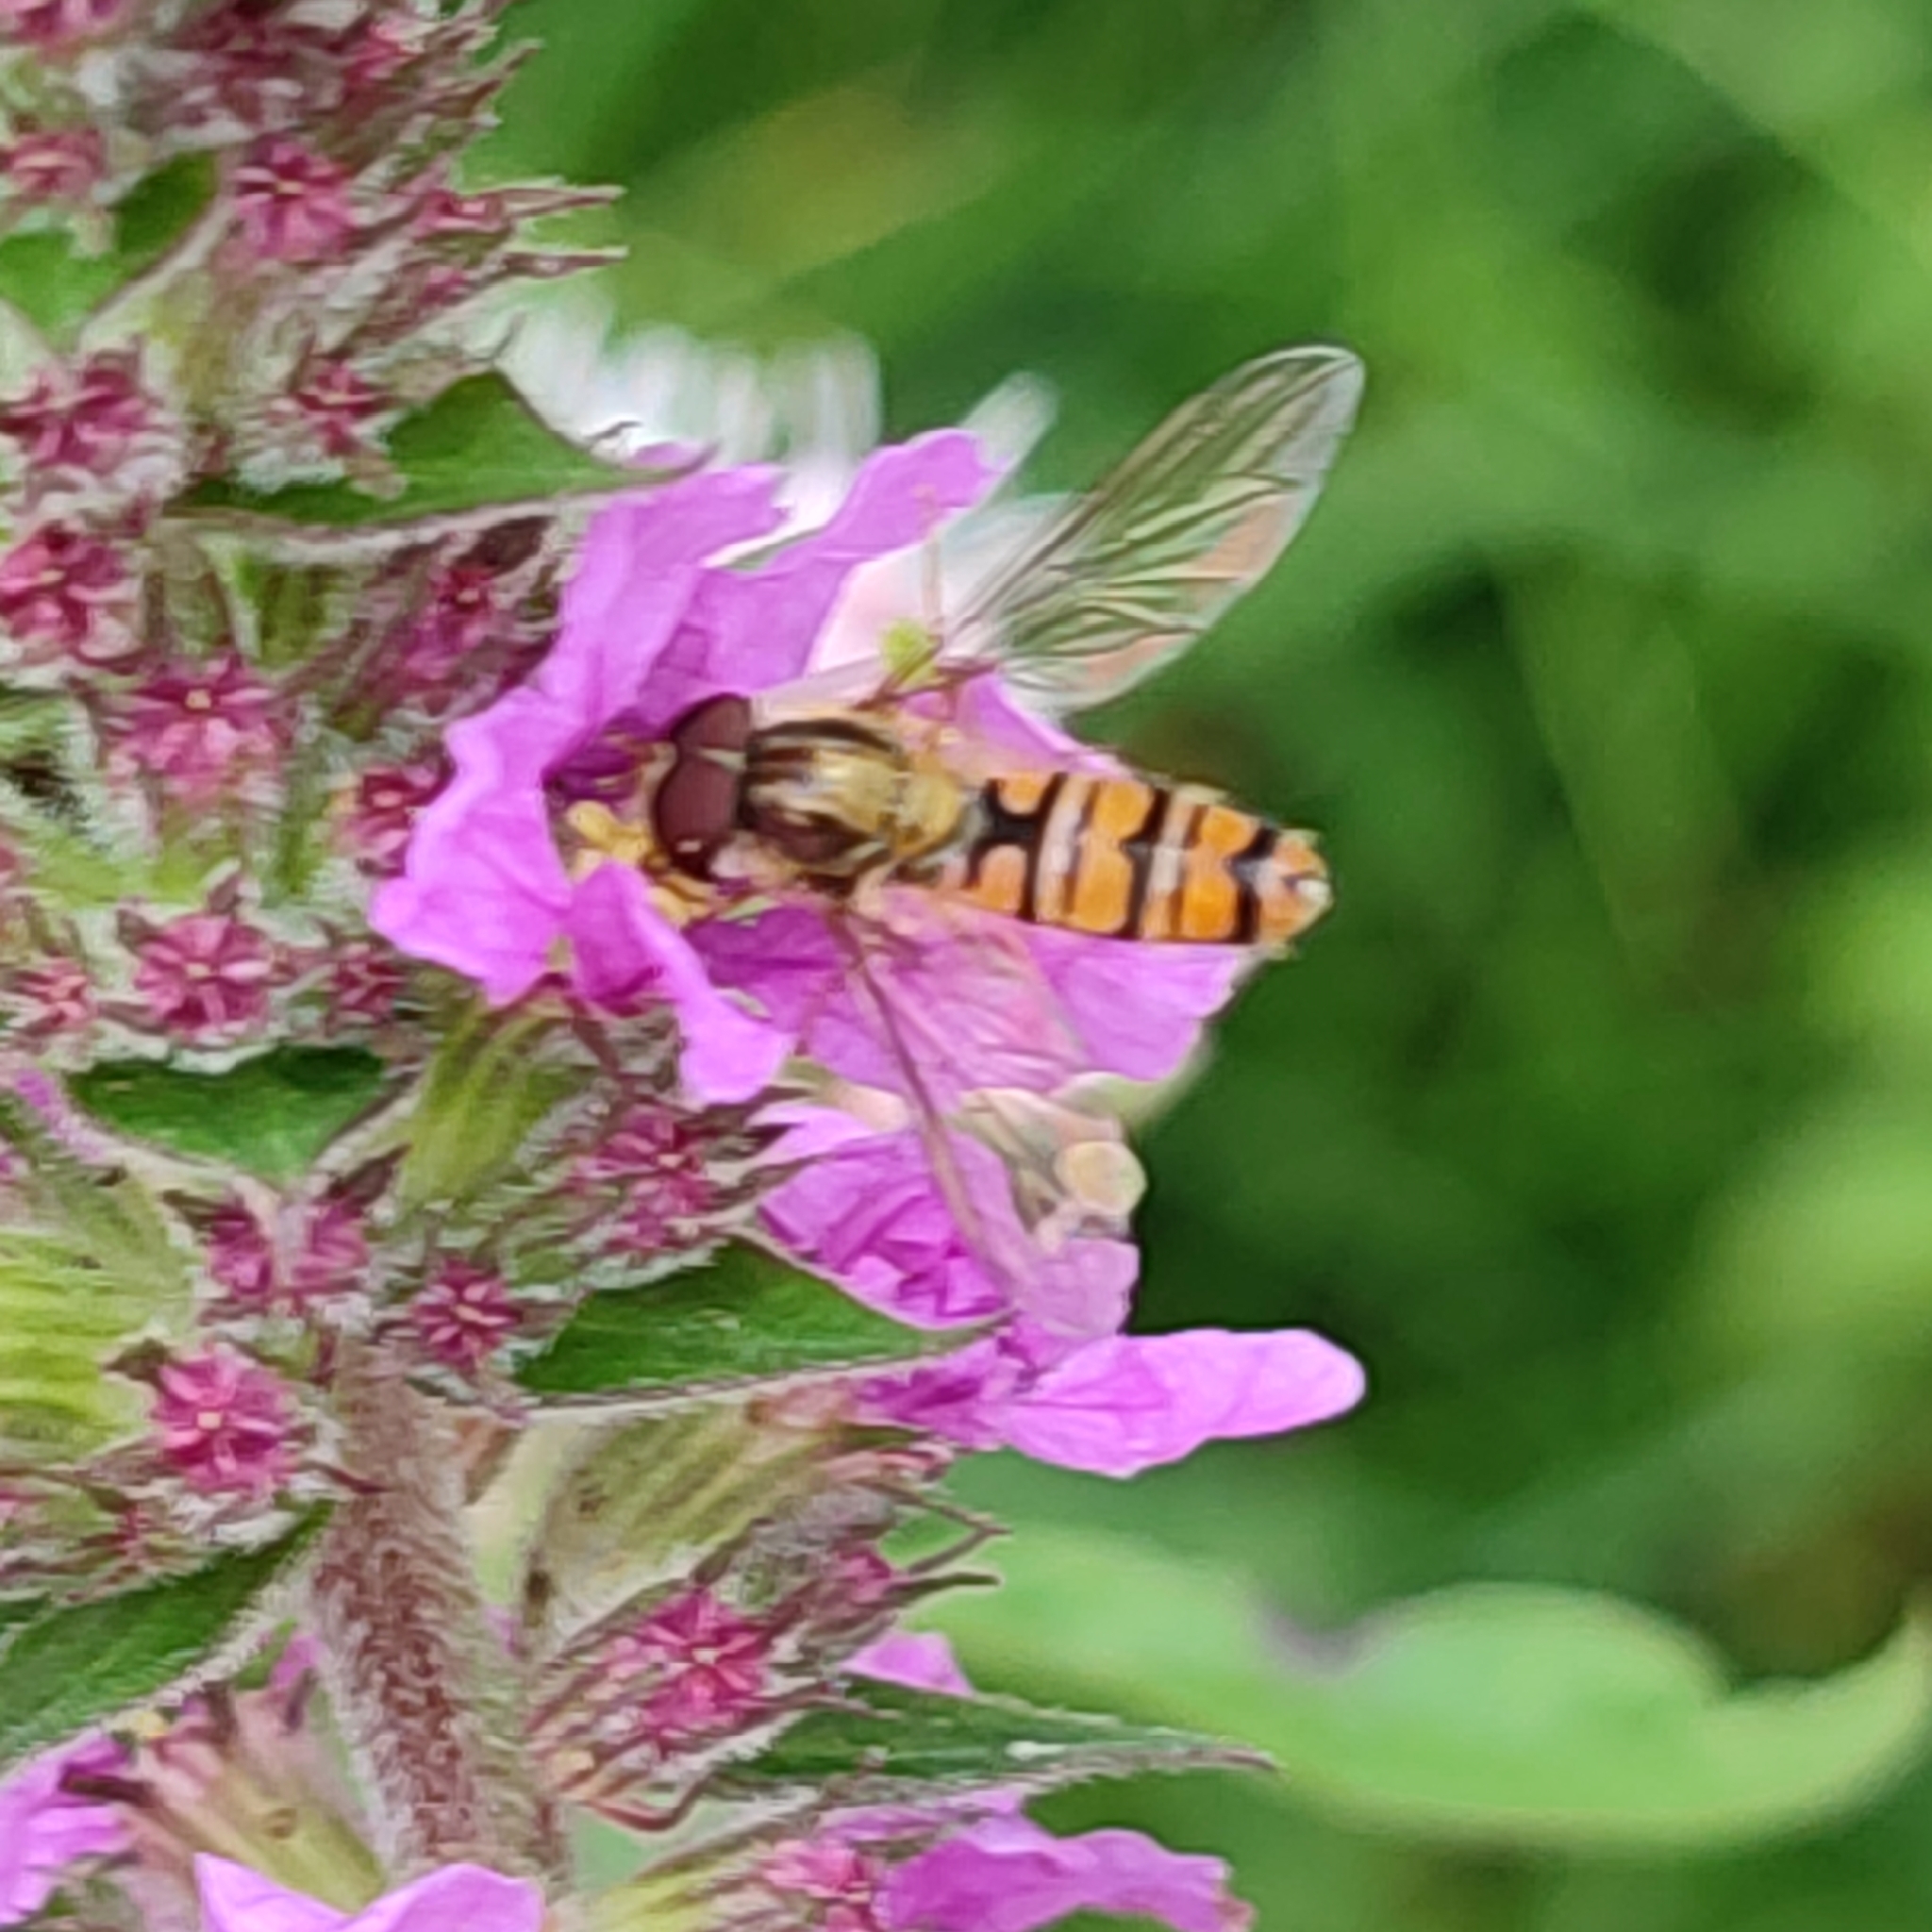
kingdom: Animalia
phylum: Arthropoda
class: Insecta
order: Diptera
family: Syrphidae
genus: Episyrphus
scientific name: Episyrphus balteatus
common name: Marmalade hoverfly
